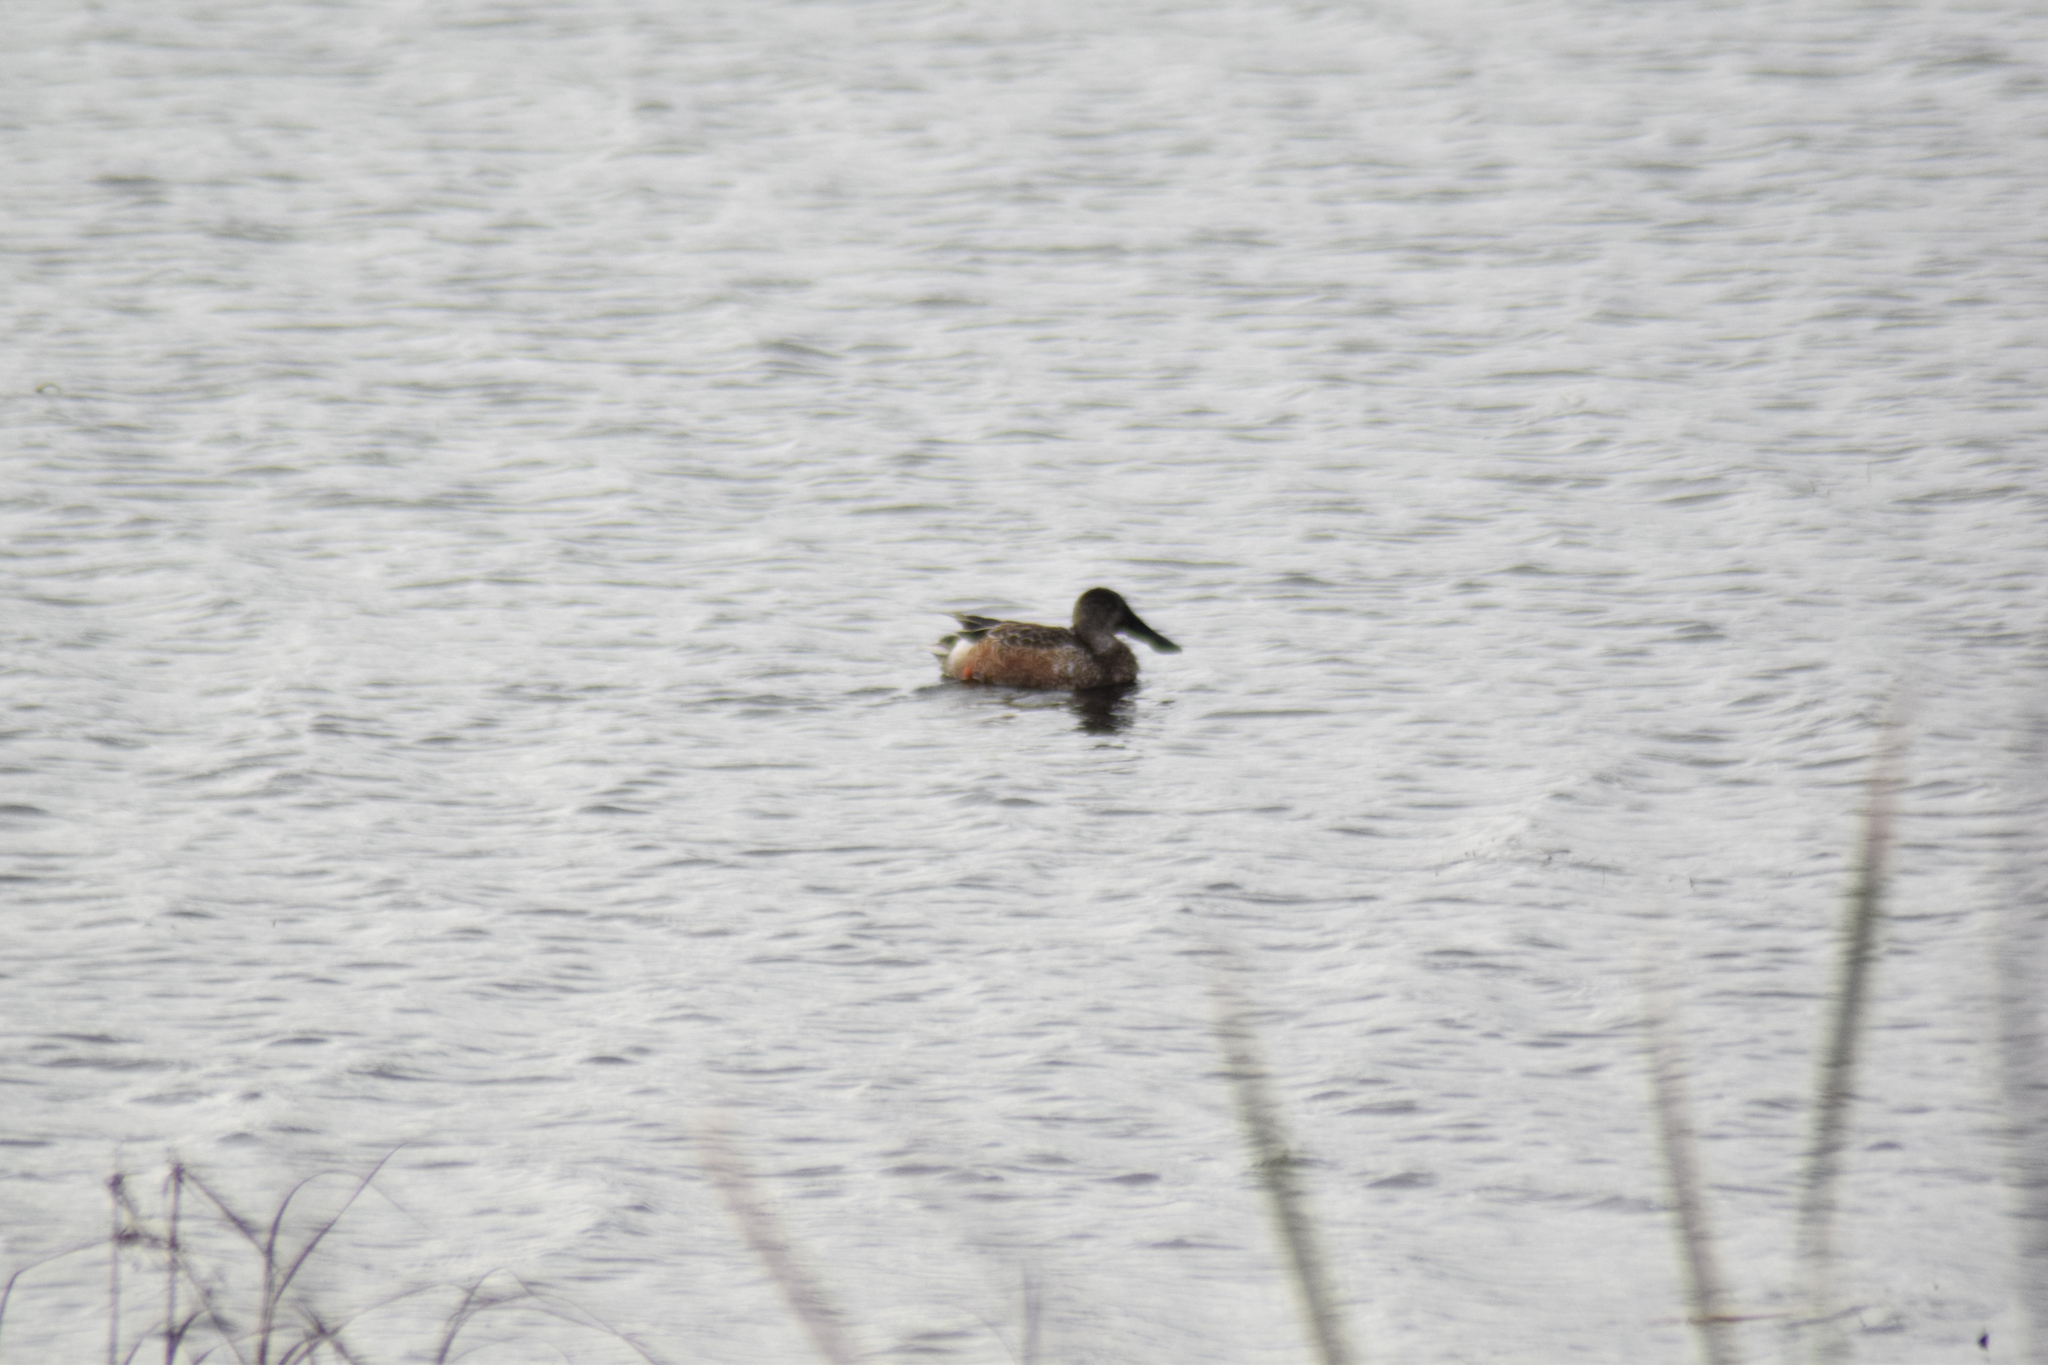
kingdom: Animalia
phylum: Chordata
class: Aves
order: Anseriformes
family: Anatidae
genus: Spatula
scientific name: Spatula clypeata
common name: Northern shoveler
